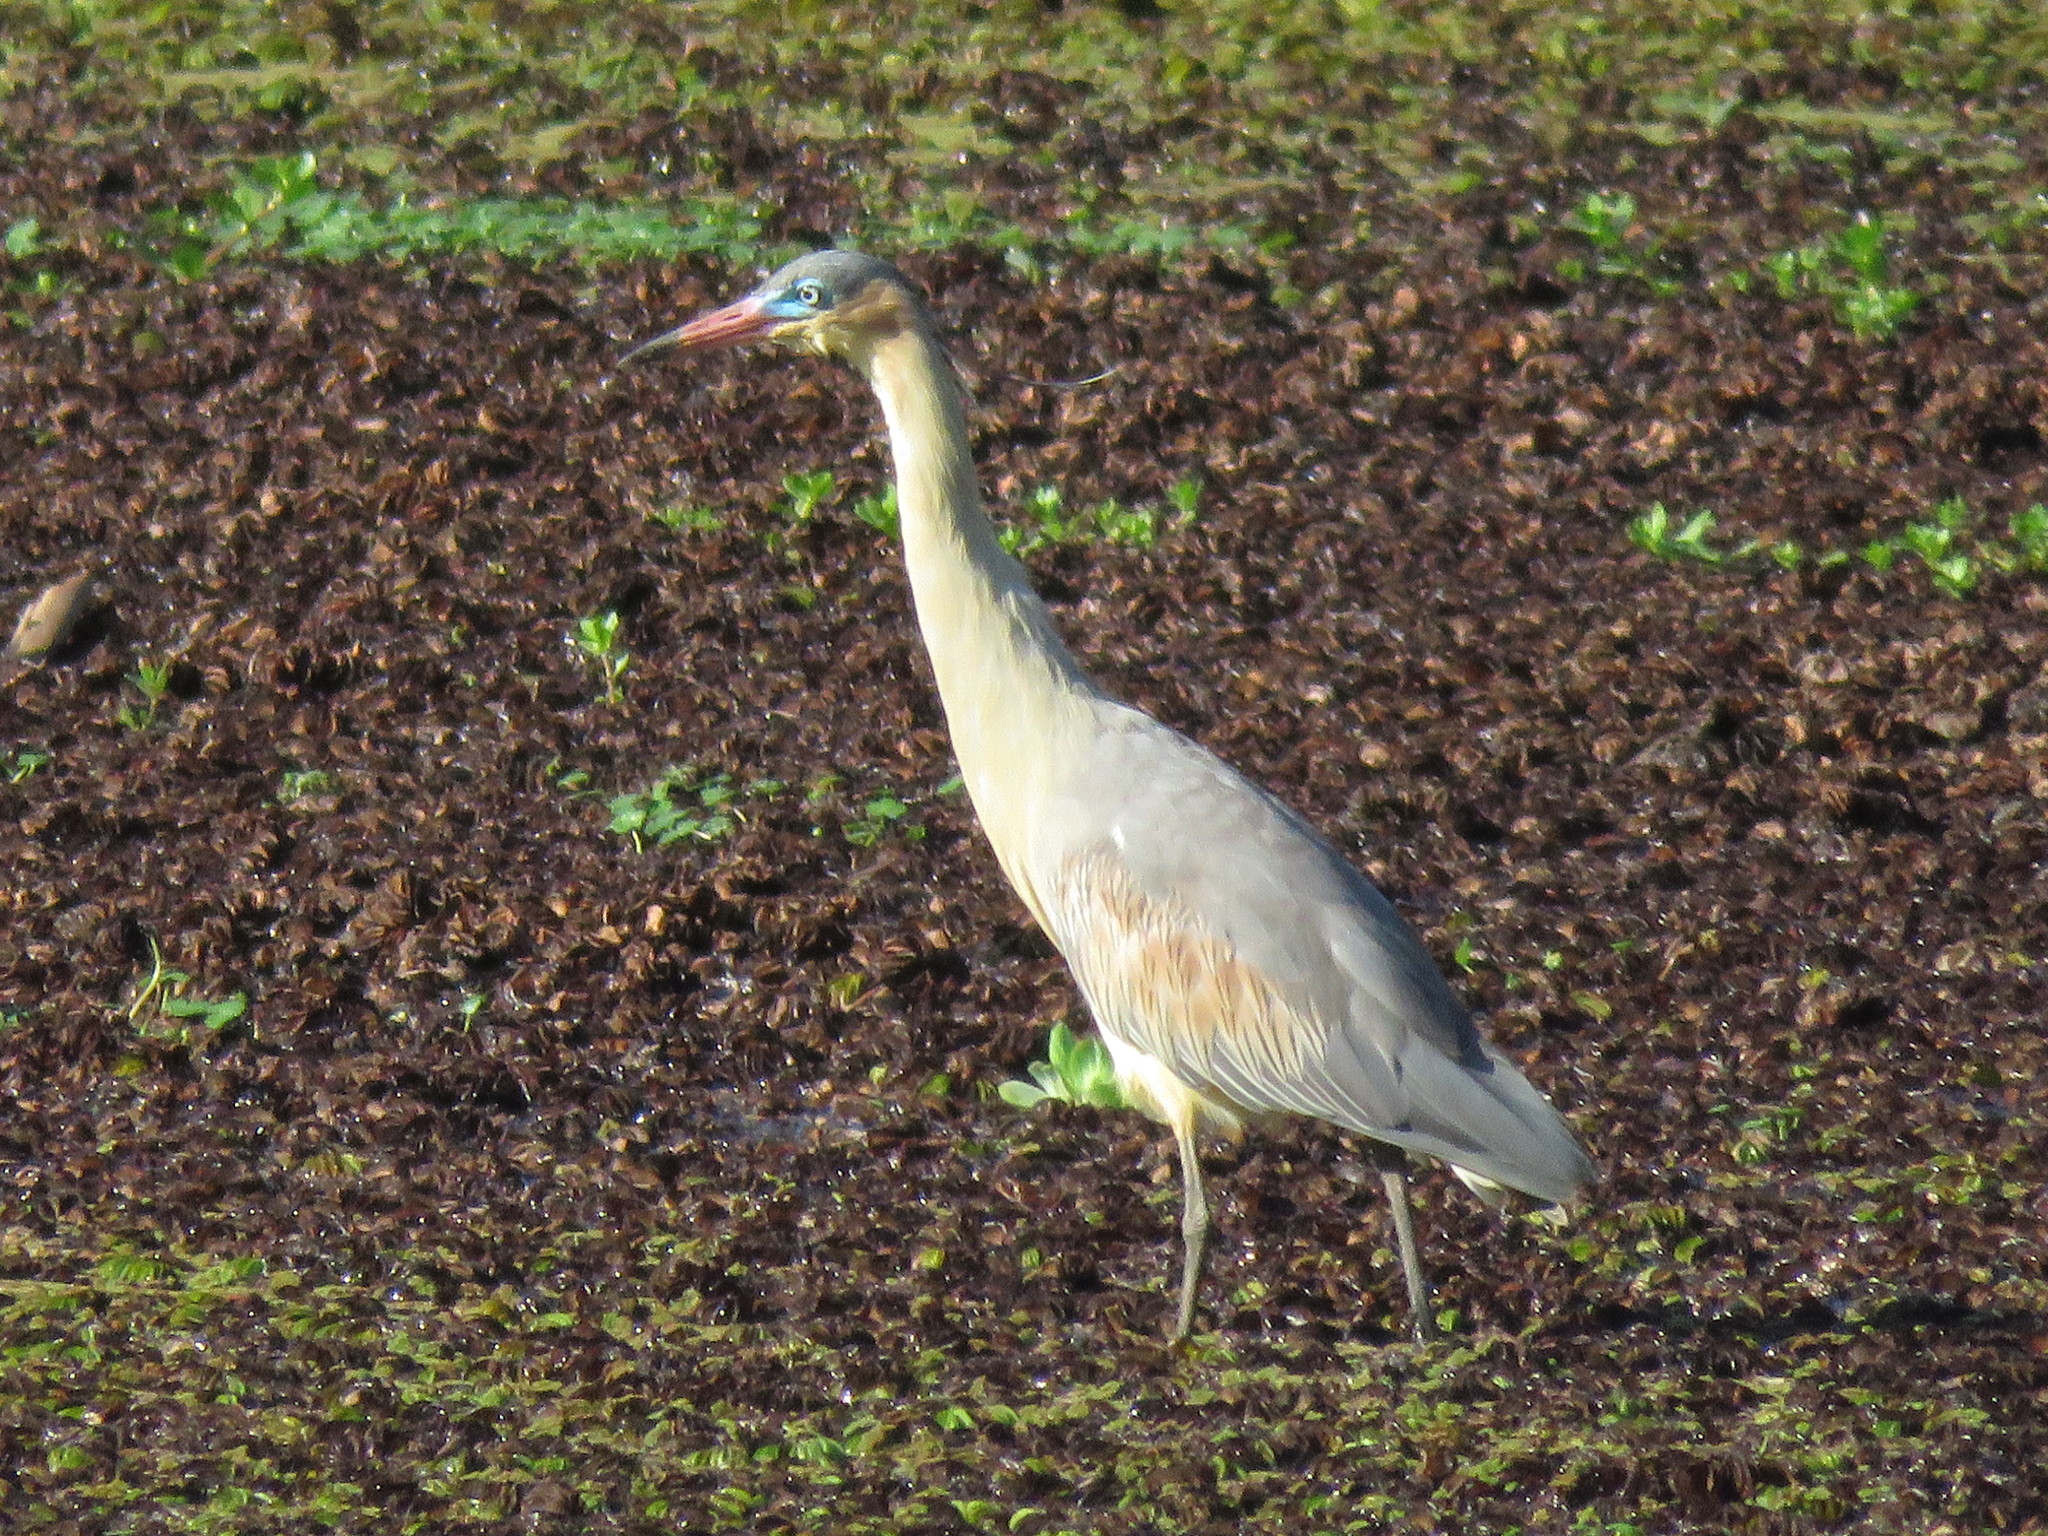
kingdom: Animalia
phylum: Chordata
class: Aves
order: Pelecaniformes
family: Ardeidae
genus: Syrigma
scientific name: Syrigma sibilatrix
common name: Whistling heron
